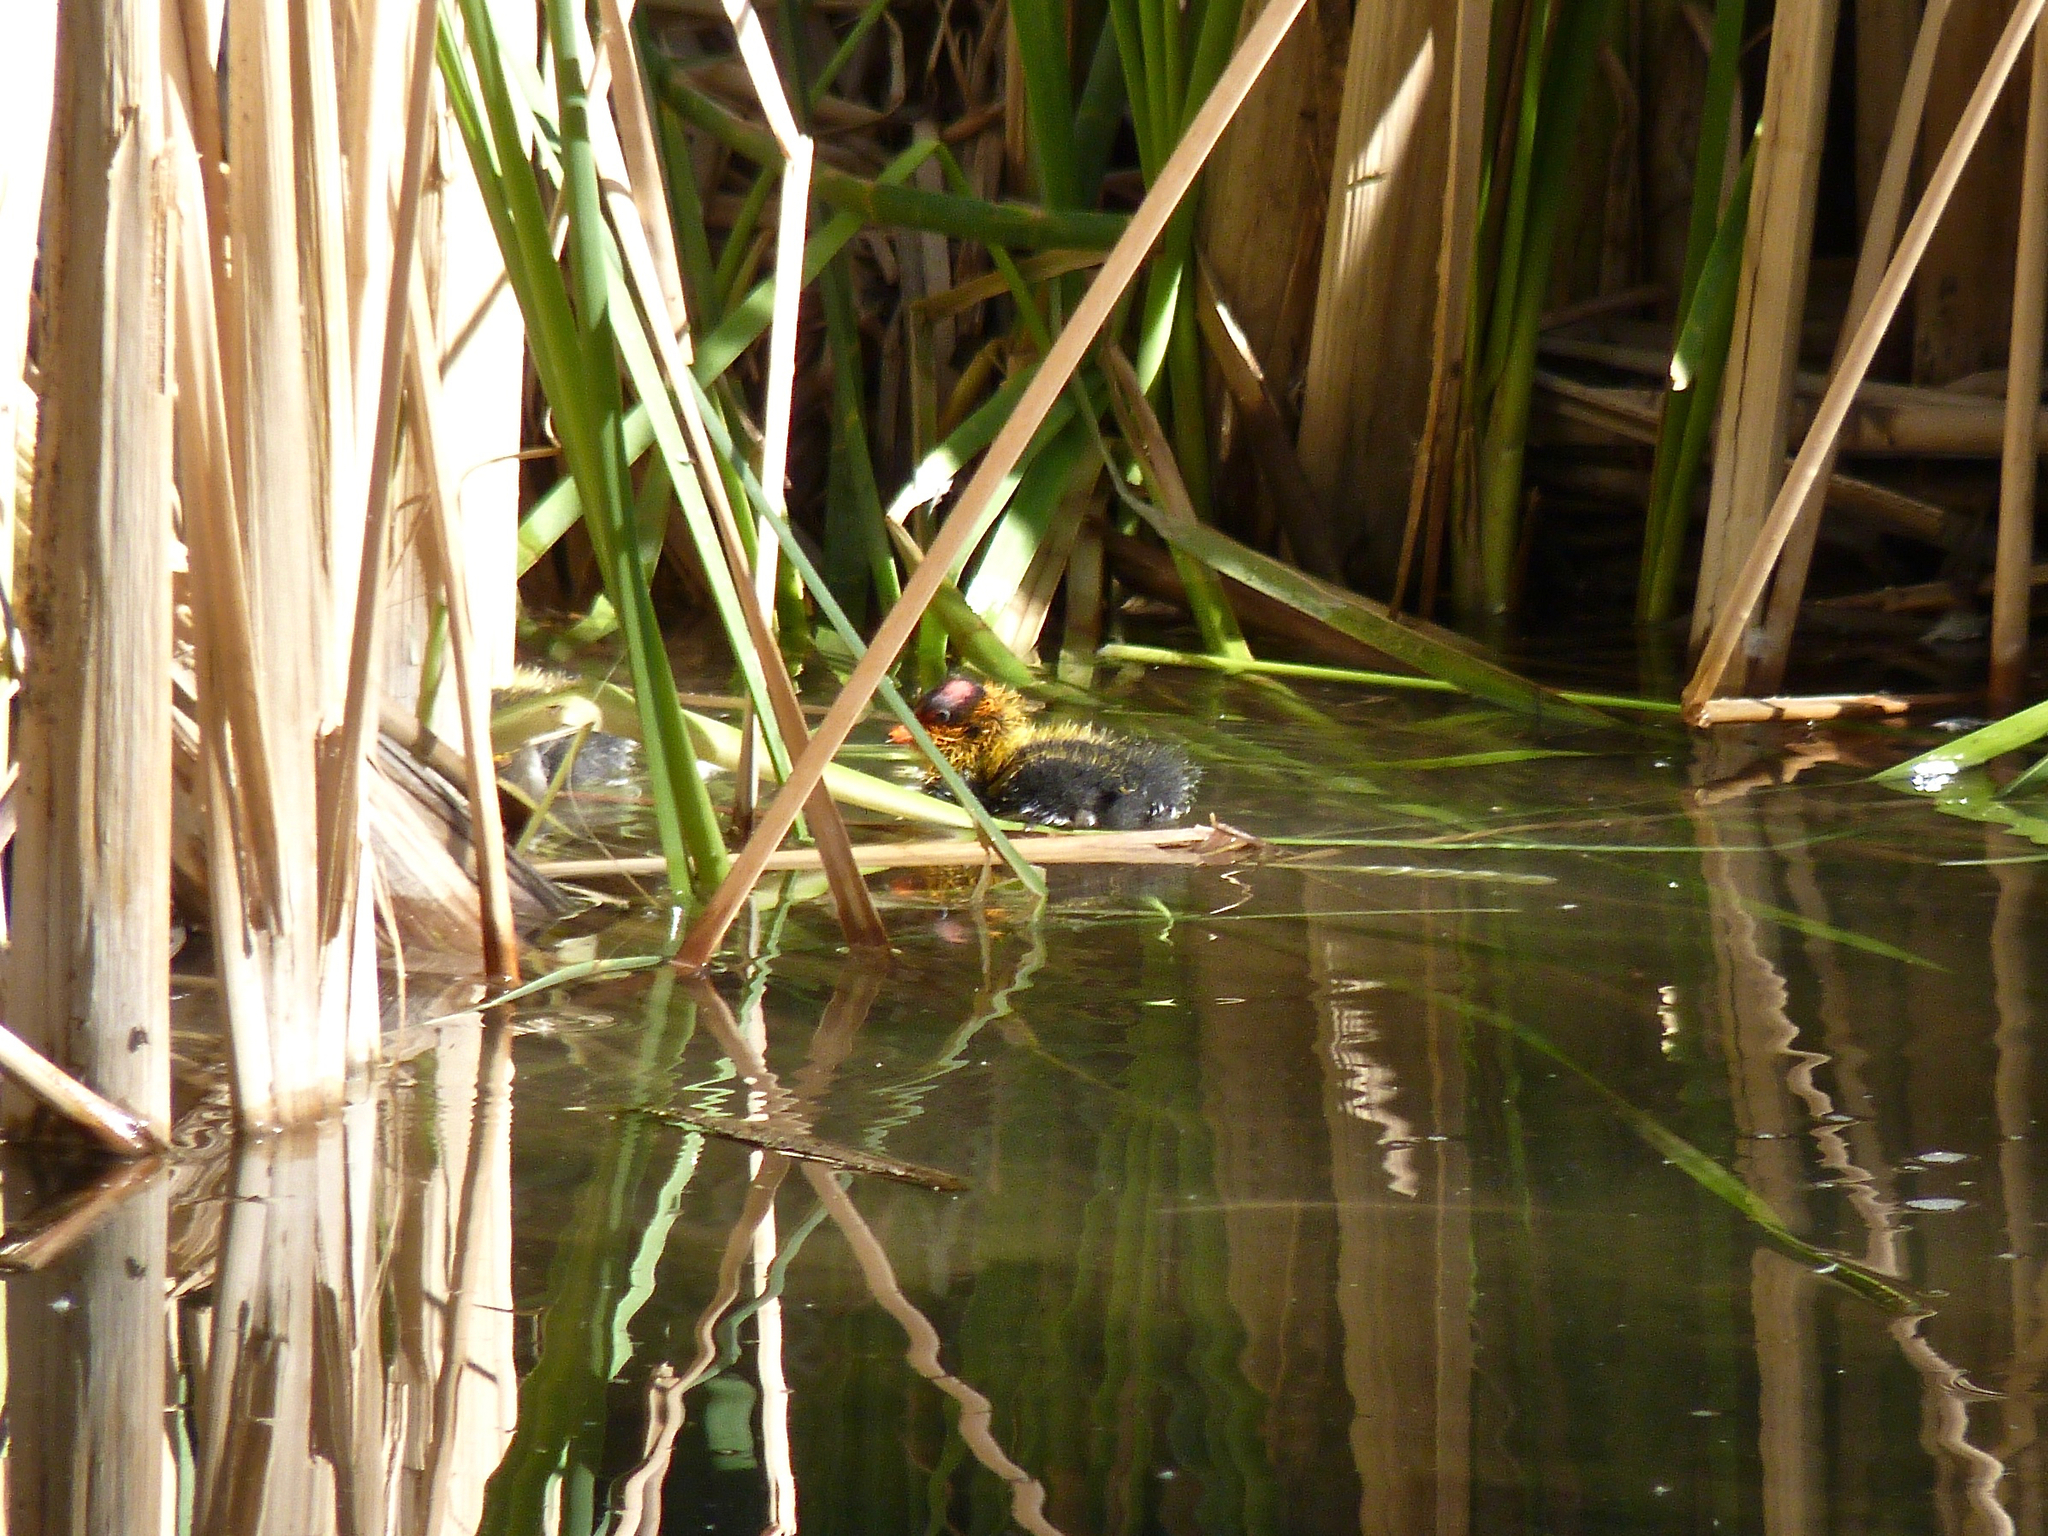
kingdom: Animalia
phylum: Chordata
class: Aves
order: Gruiformes
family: Rallidae
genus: Fulica
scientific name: Fulica americana
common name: American coot
